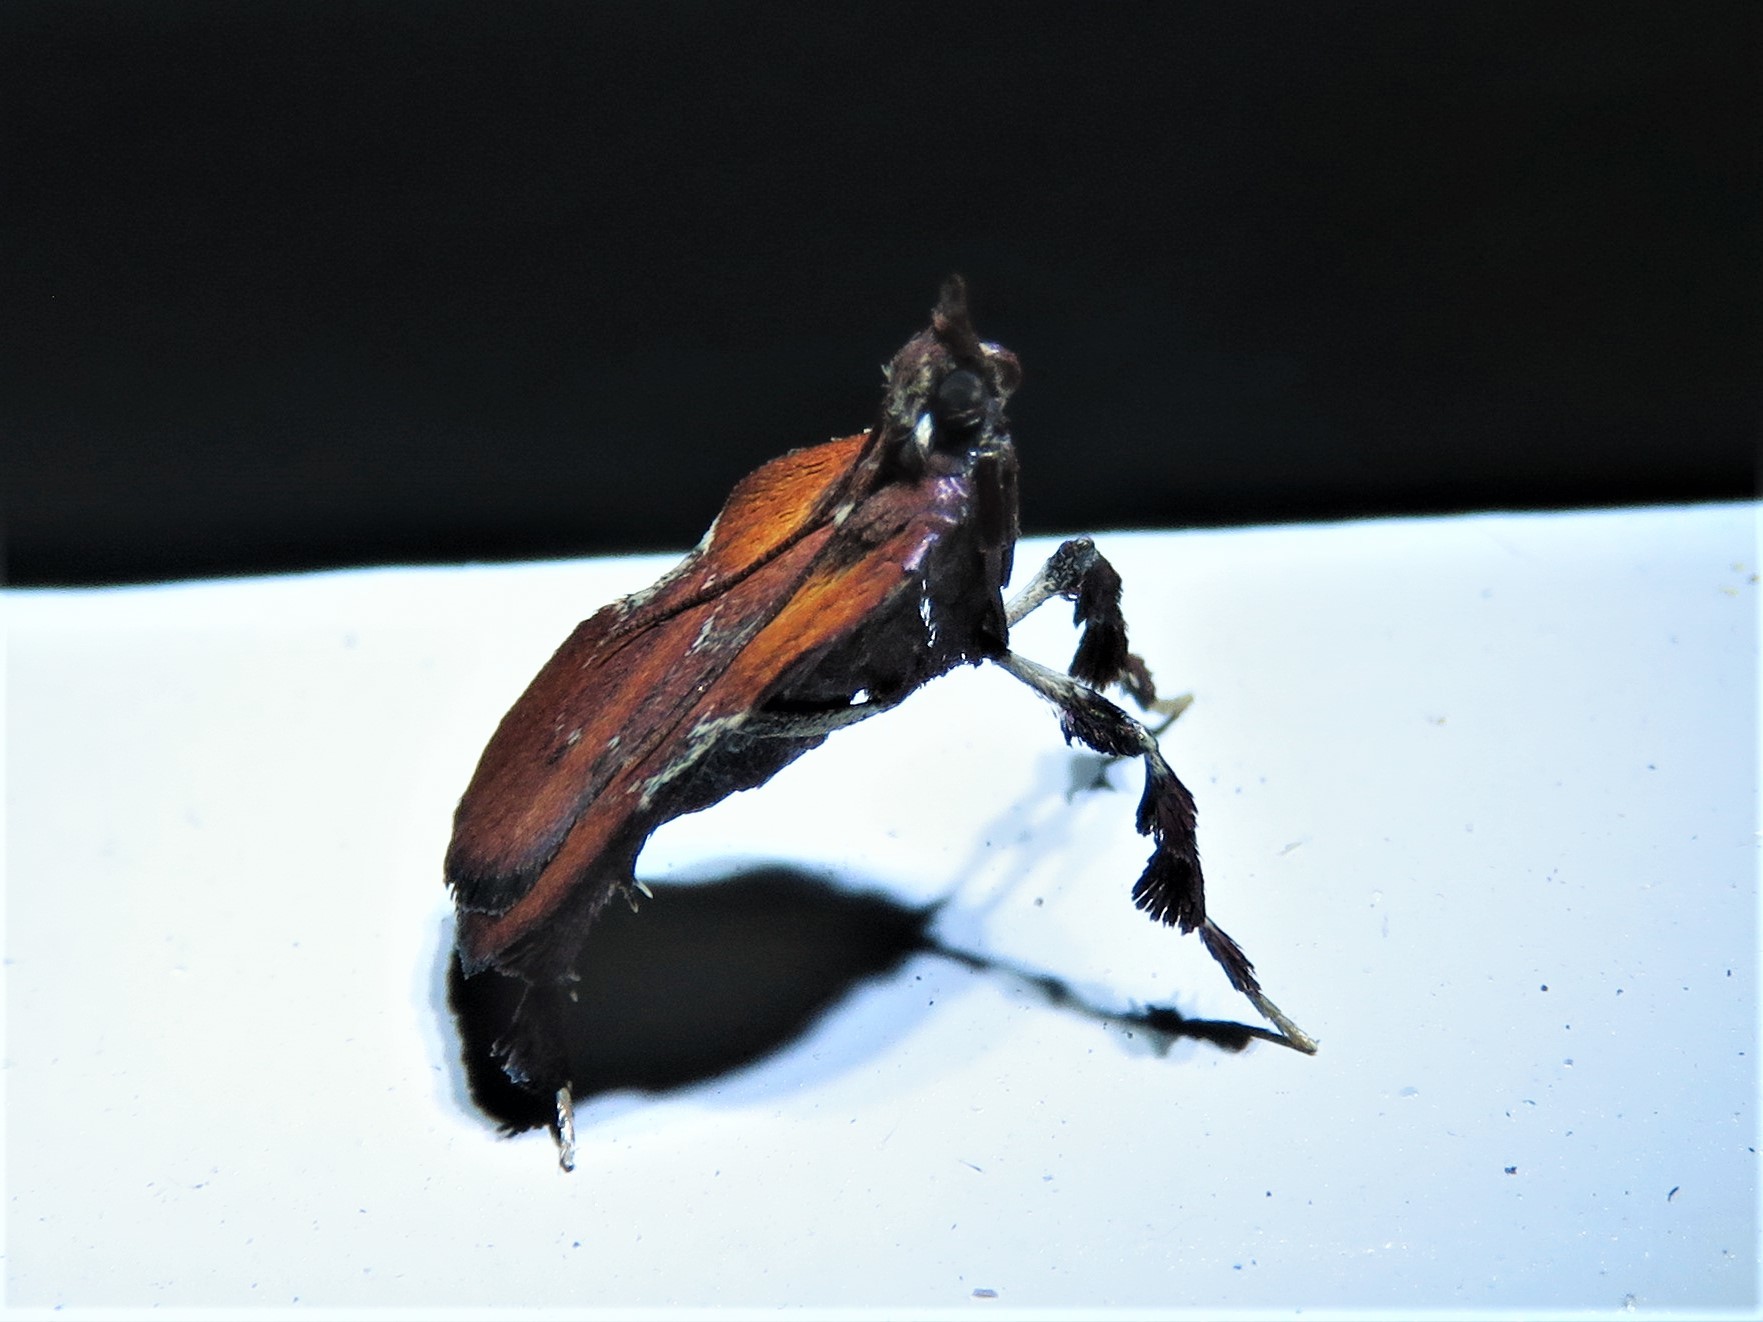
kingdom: Animalia
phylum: Arthropoda
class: Insecta
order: Lepidoptera
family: Pyralidae
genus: Galasa
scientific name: Galasa nigrinodis
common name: Boxwood leaftier moth
